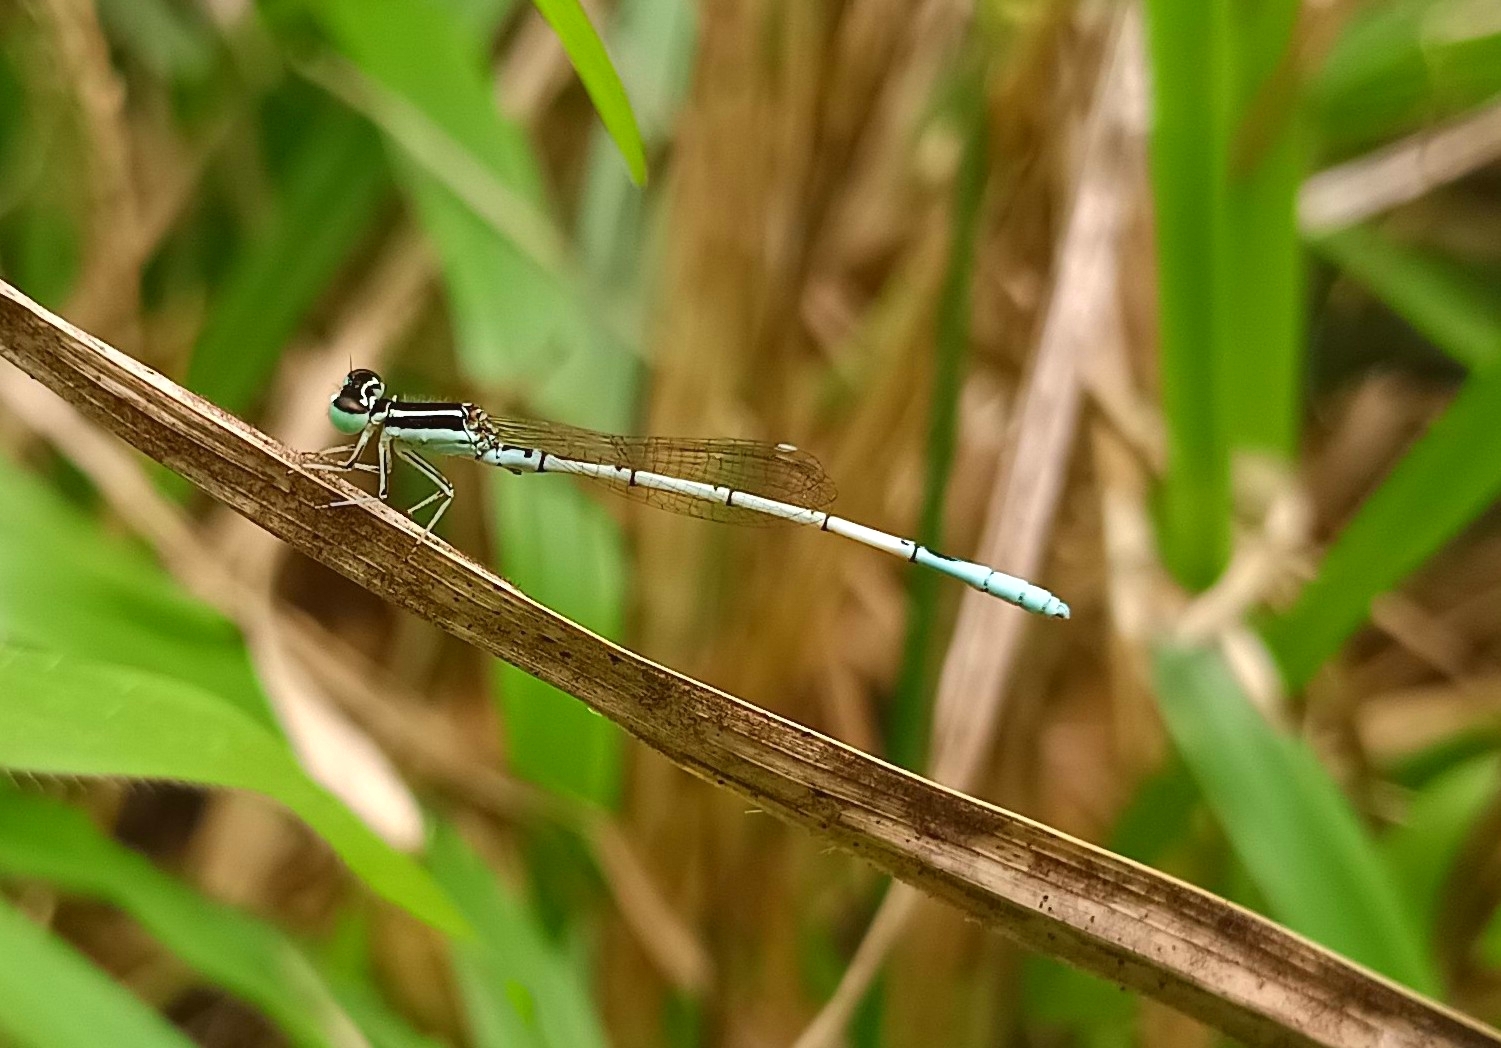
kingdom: Animalia
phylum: Arthropoda
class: Insecta
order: Odonata
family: Coenagrionidae
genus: Agriocnemis
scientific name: Agriocnemis pieris
